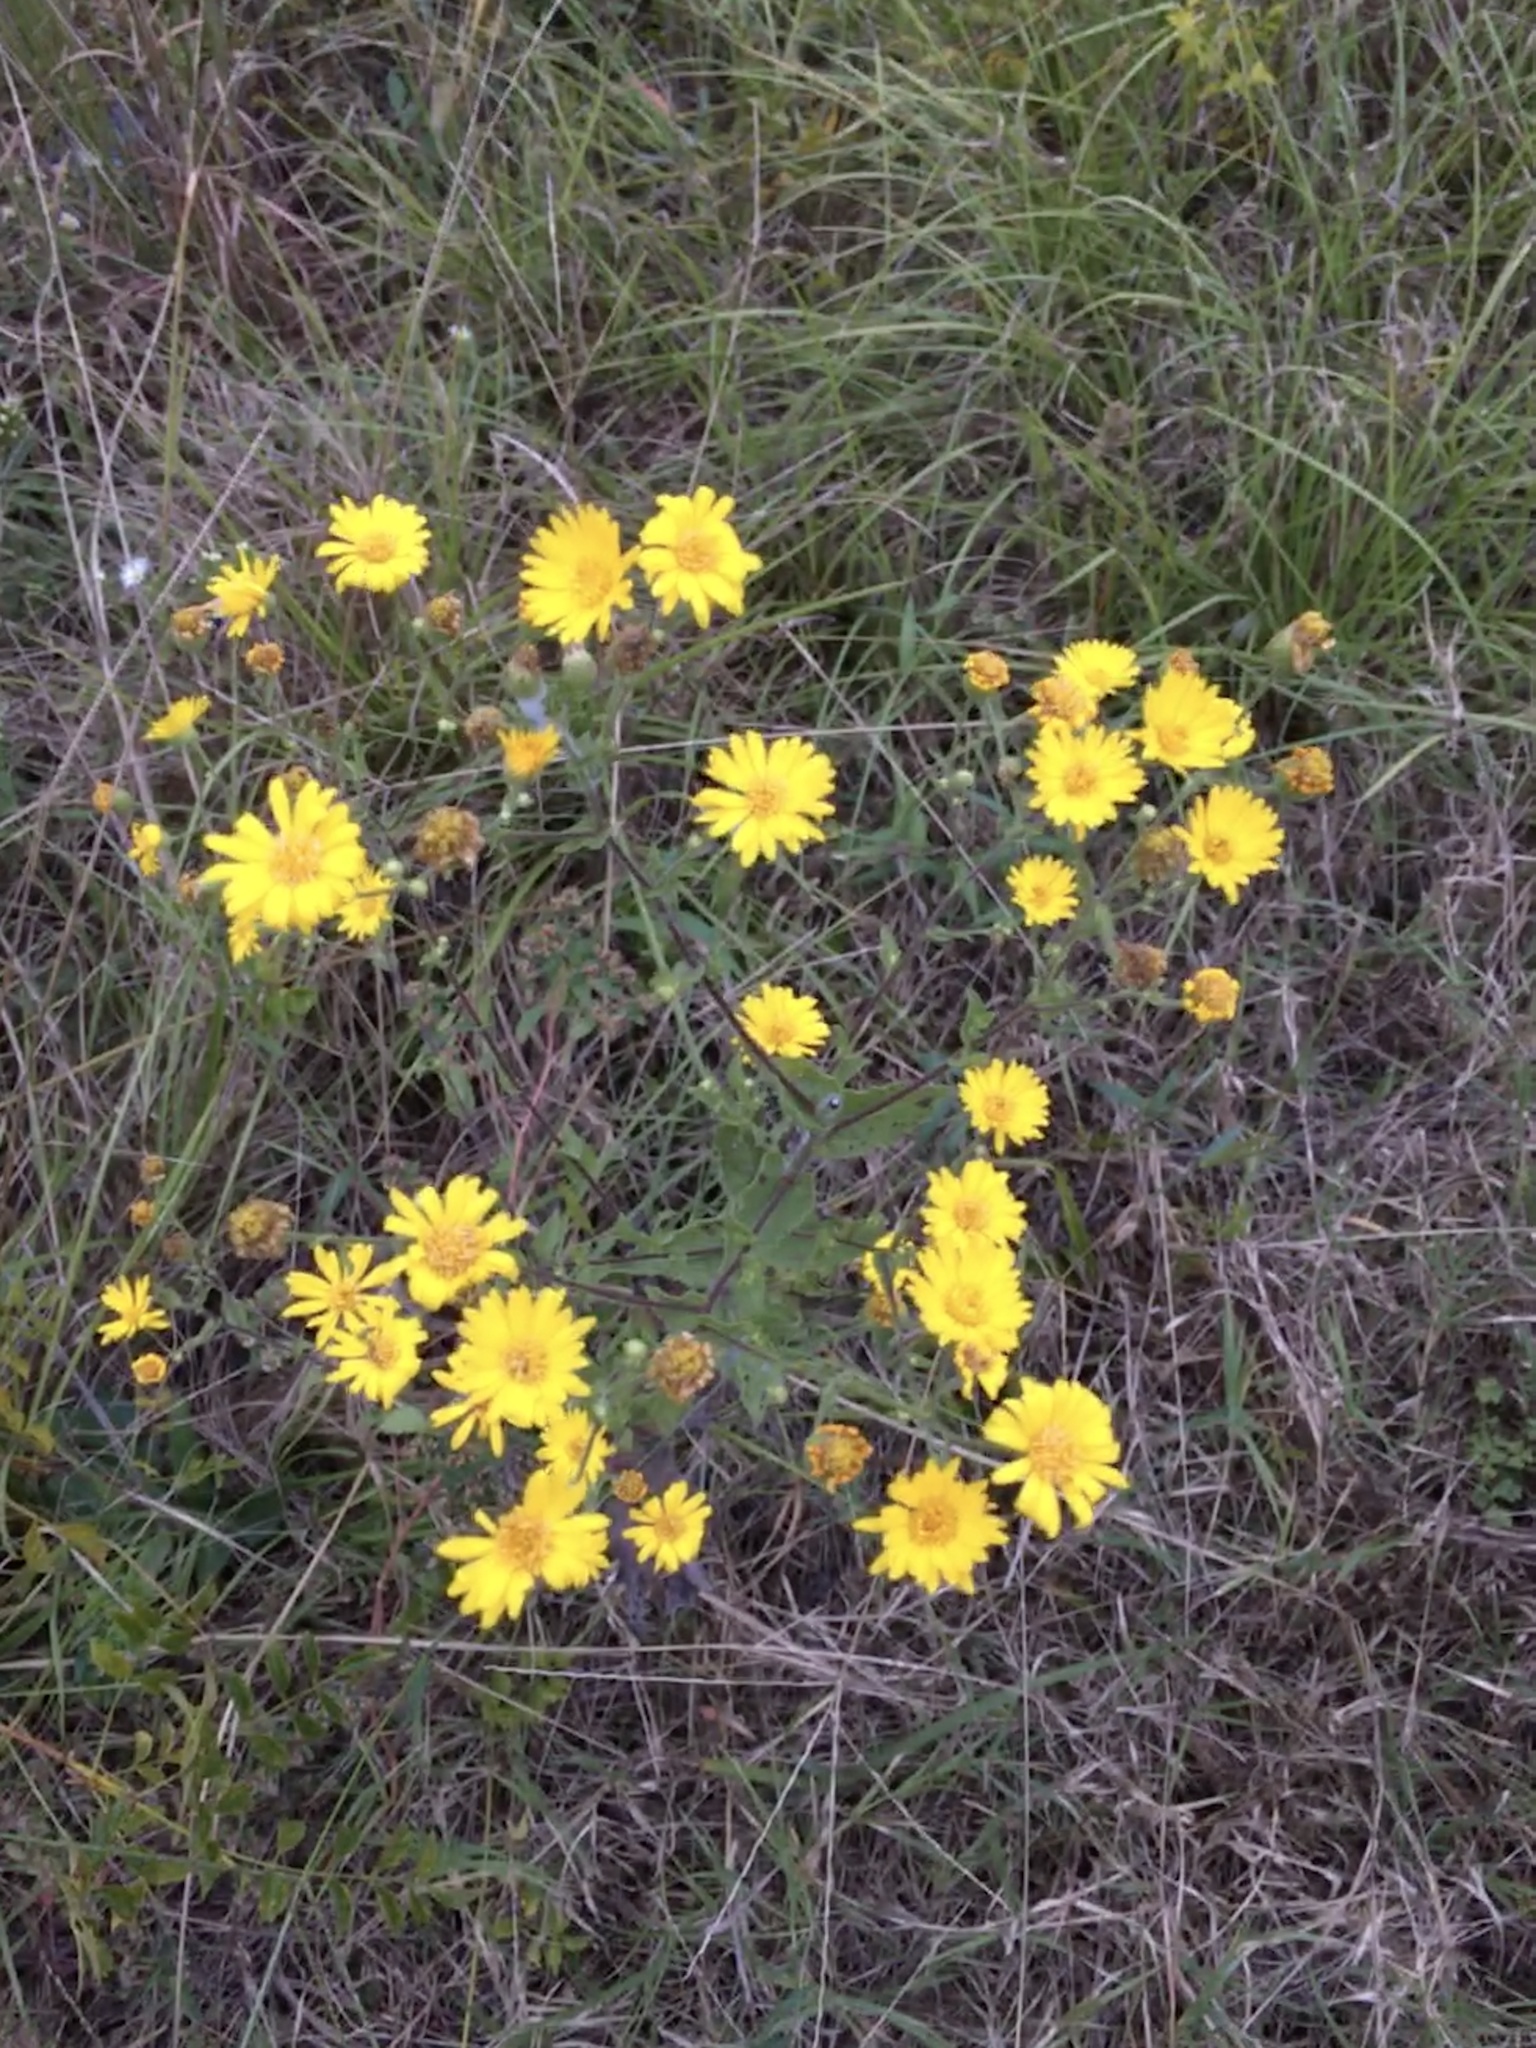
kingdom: Plantae
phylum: Tracheophyta
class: Magnoliopsida
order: Asterales
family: Asteraceae
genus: Heterotheca
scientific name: Heterotheca subaxillaris
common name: Camphorweed
